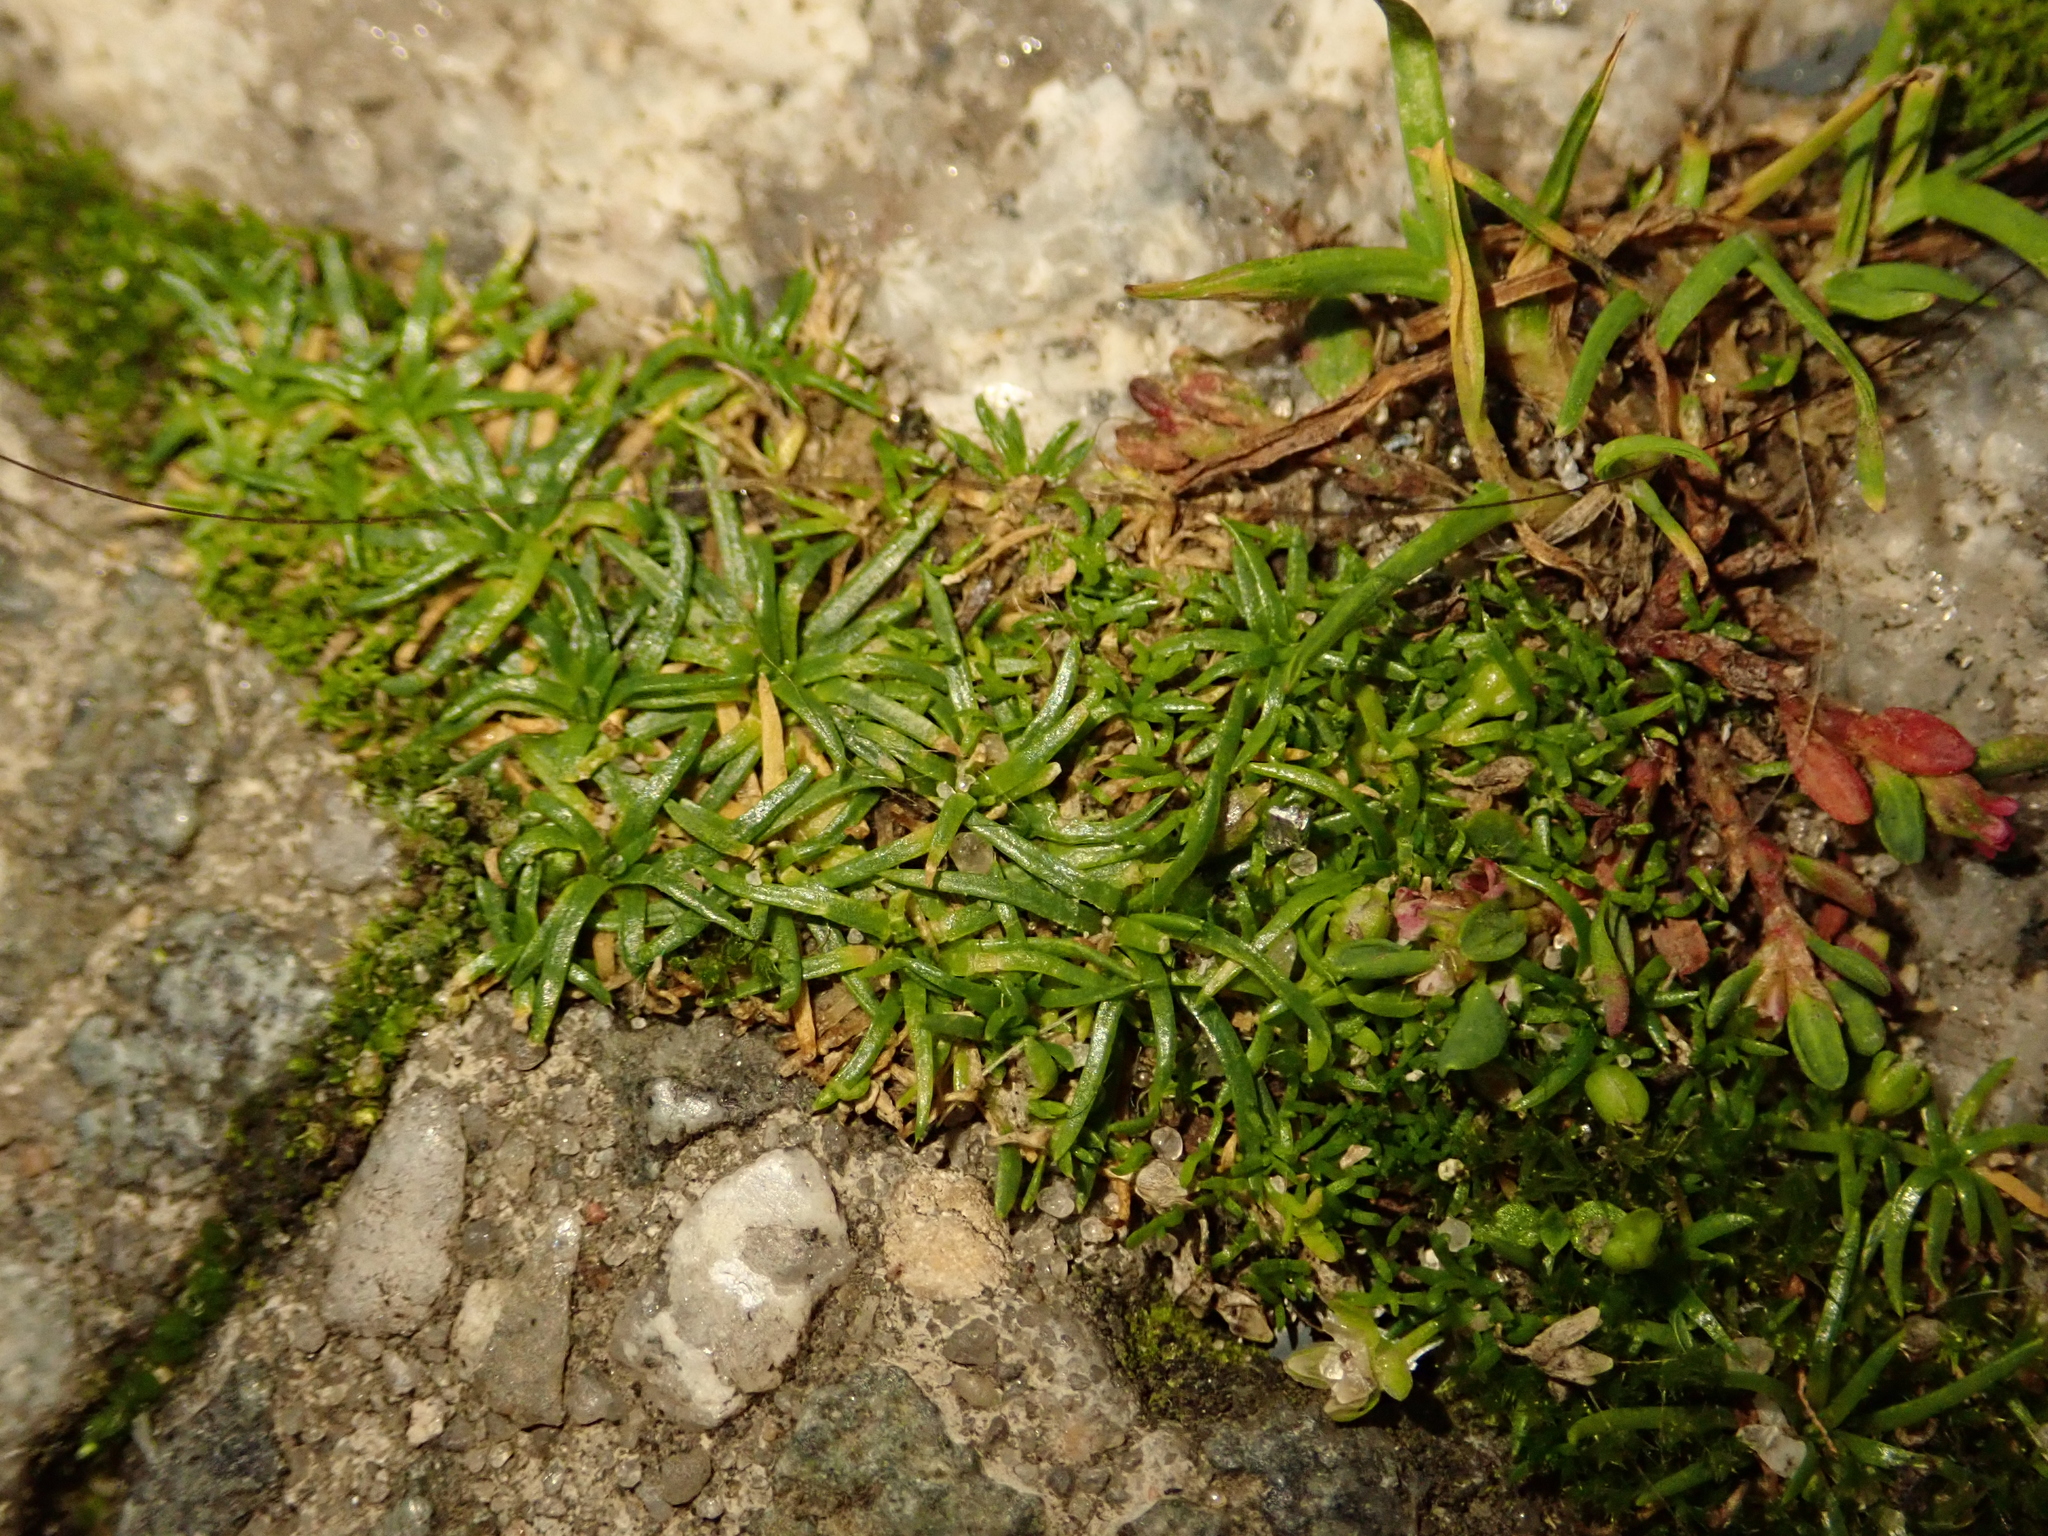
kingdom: Plantae
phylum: Tracheophyta
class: Magnoliopsida
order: Caryophyllales
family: Caryophyllaceae
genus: Sagina
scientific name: Sagina procumbens
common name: Procumbent pearlwort
